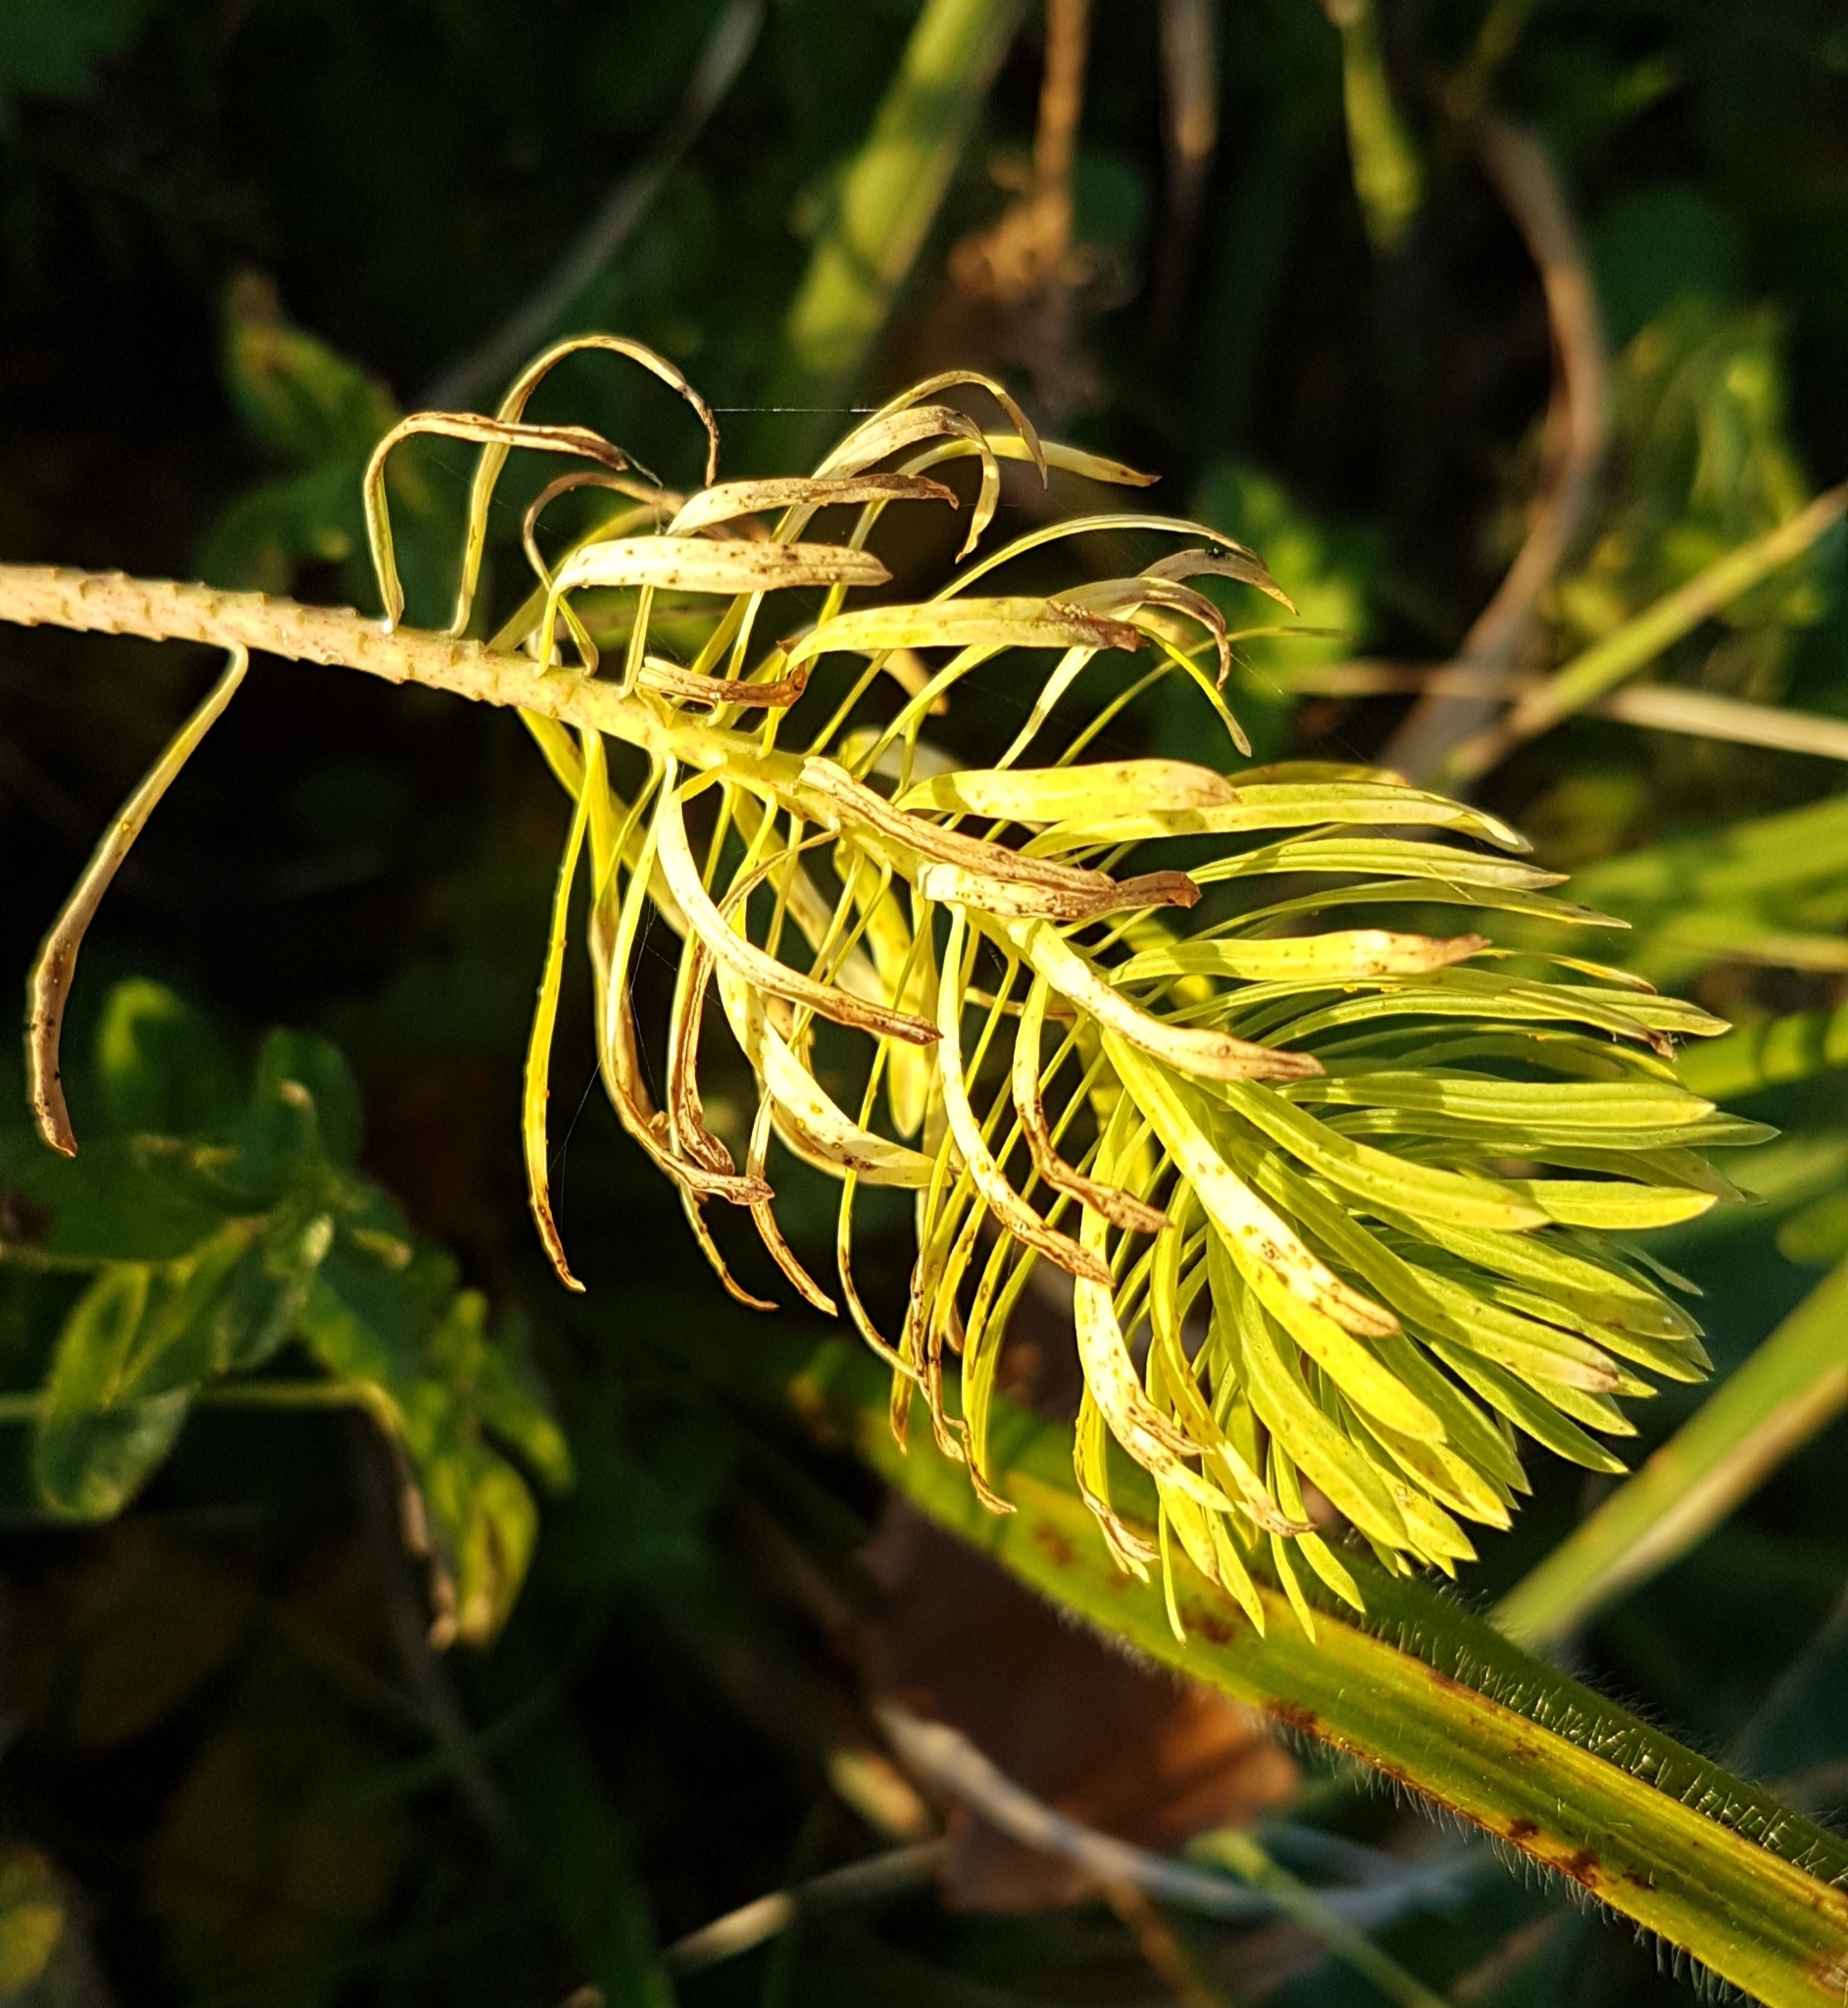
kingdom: Plantae
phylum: Tracheophyta
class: Magnoliopsida
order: Malpighiales
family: Euphorbiaceae
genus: Euphorbia
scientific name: Euphorbia cyparissias
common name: Cypress spurge
